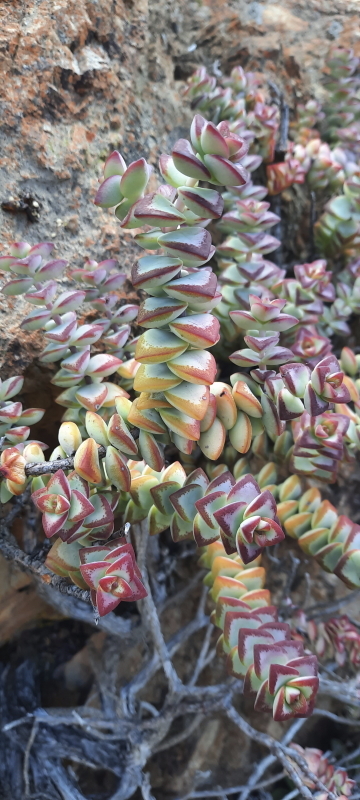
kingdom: Plantae
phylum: Tracheophyta
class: Magnoliopsida
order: Saxifragales
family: Crassulaceae
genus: Crassula
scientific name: Crassula rupestris
